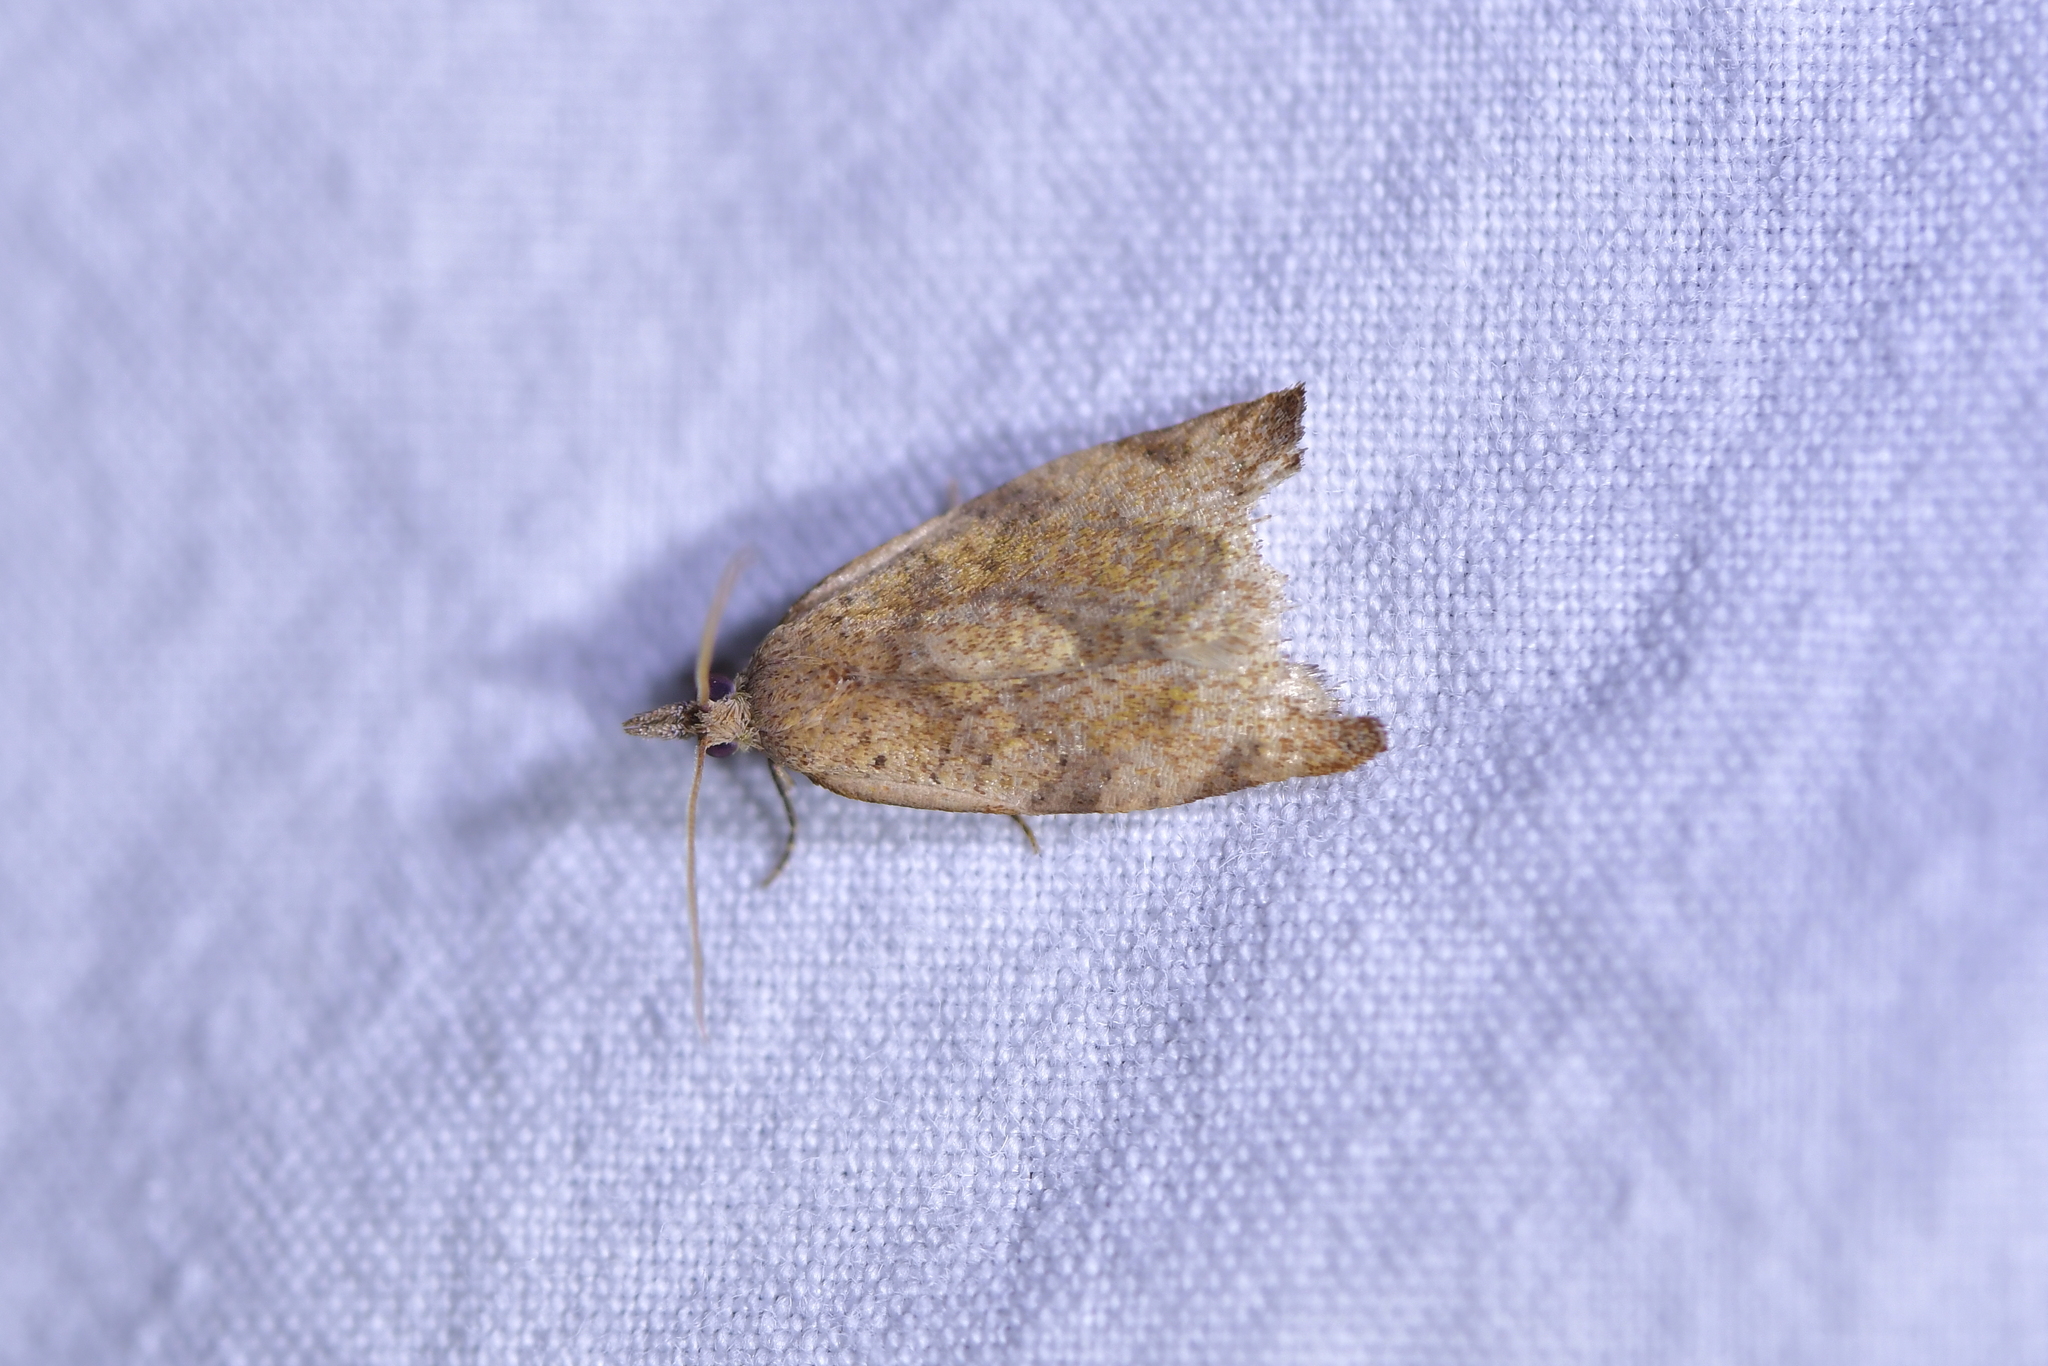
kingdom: Animalia
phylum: Arthropoda
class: Insecta
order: Lepidoptera
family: Tortricidae
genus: Apoctena
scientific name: Apoctena flavescens
